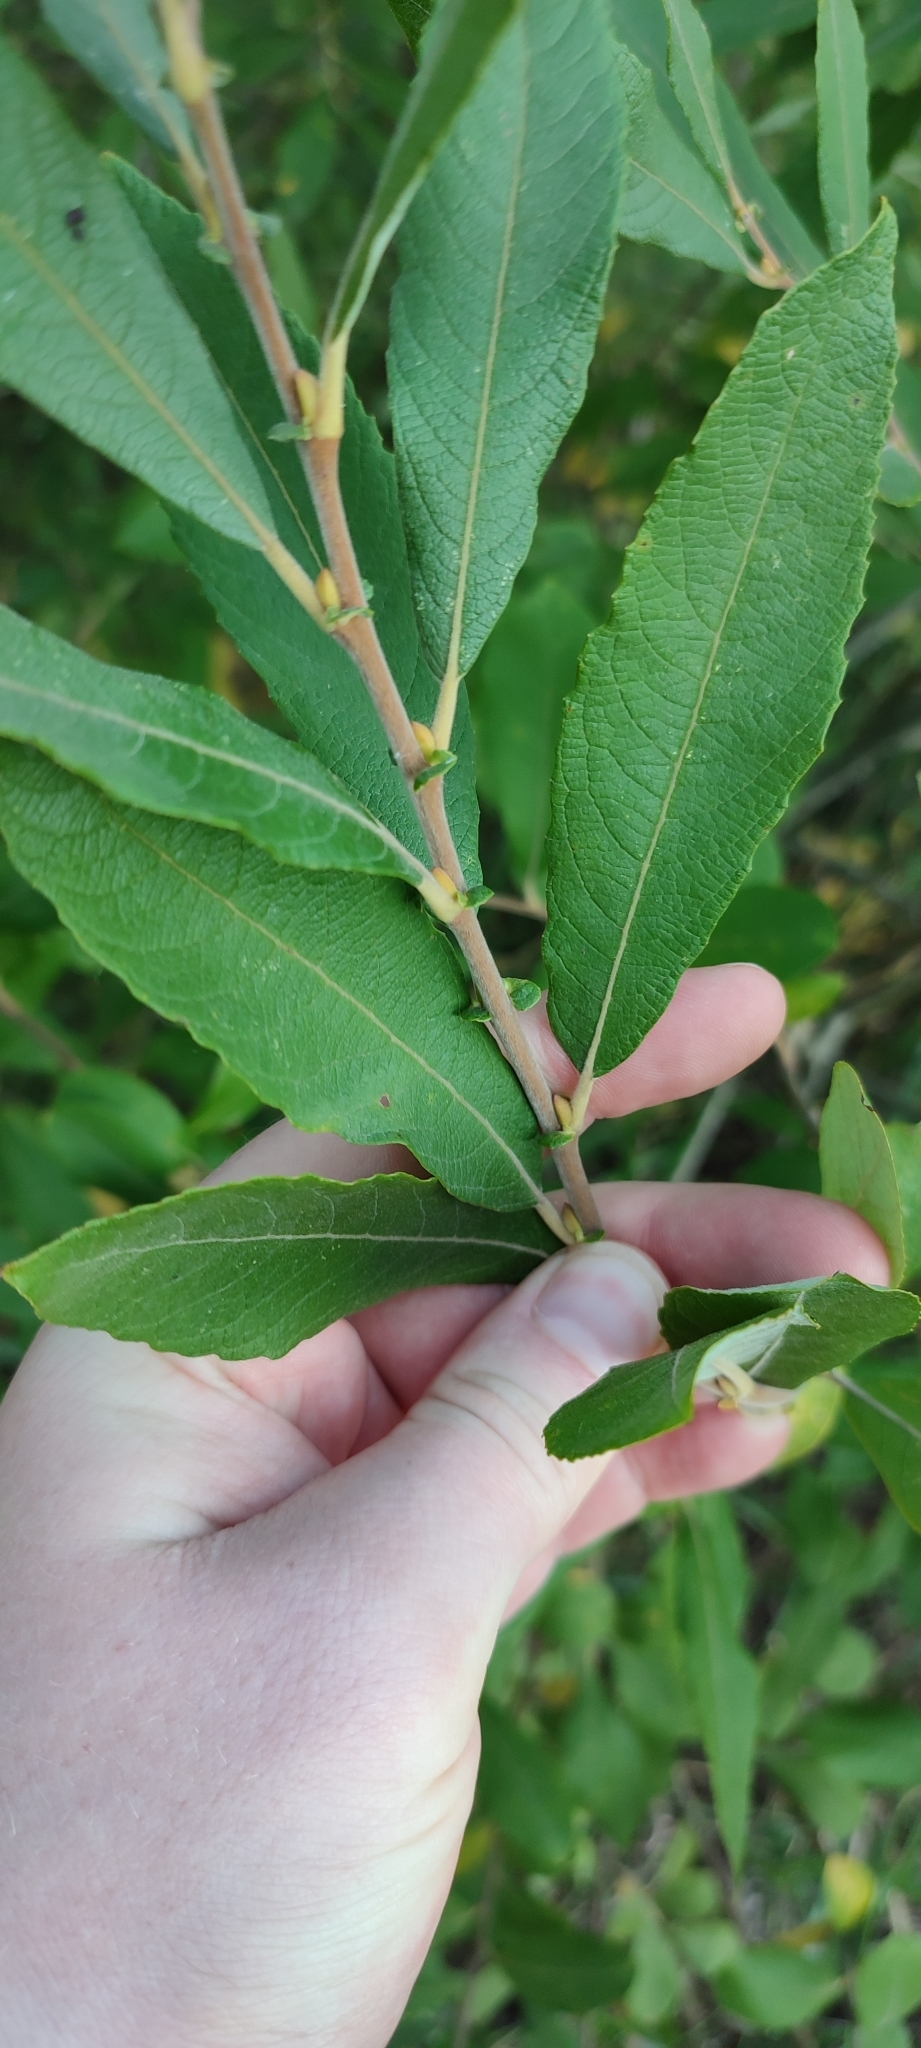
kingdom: Plantae
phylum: Tracheophyta
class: Magnoliopsida
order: Malpighiales
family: Salicaceae
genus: Salix
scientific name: Salix cinerea
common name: Common sallow
